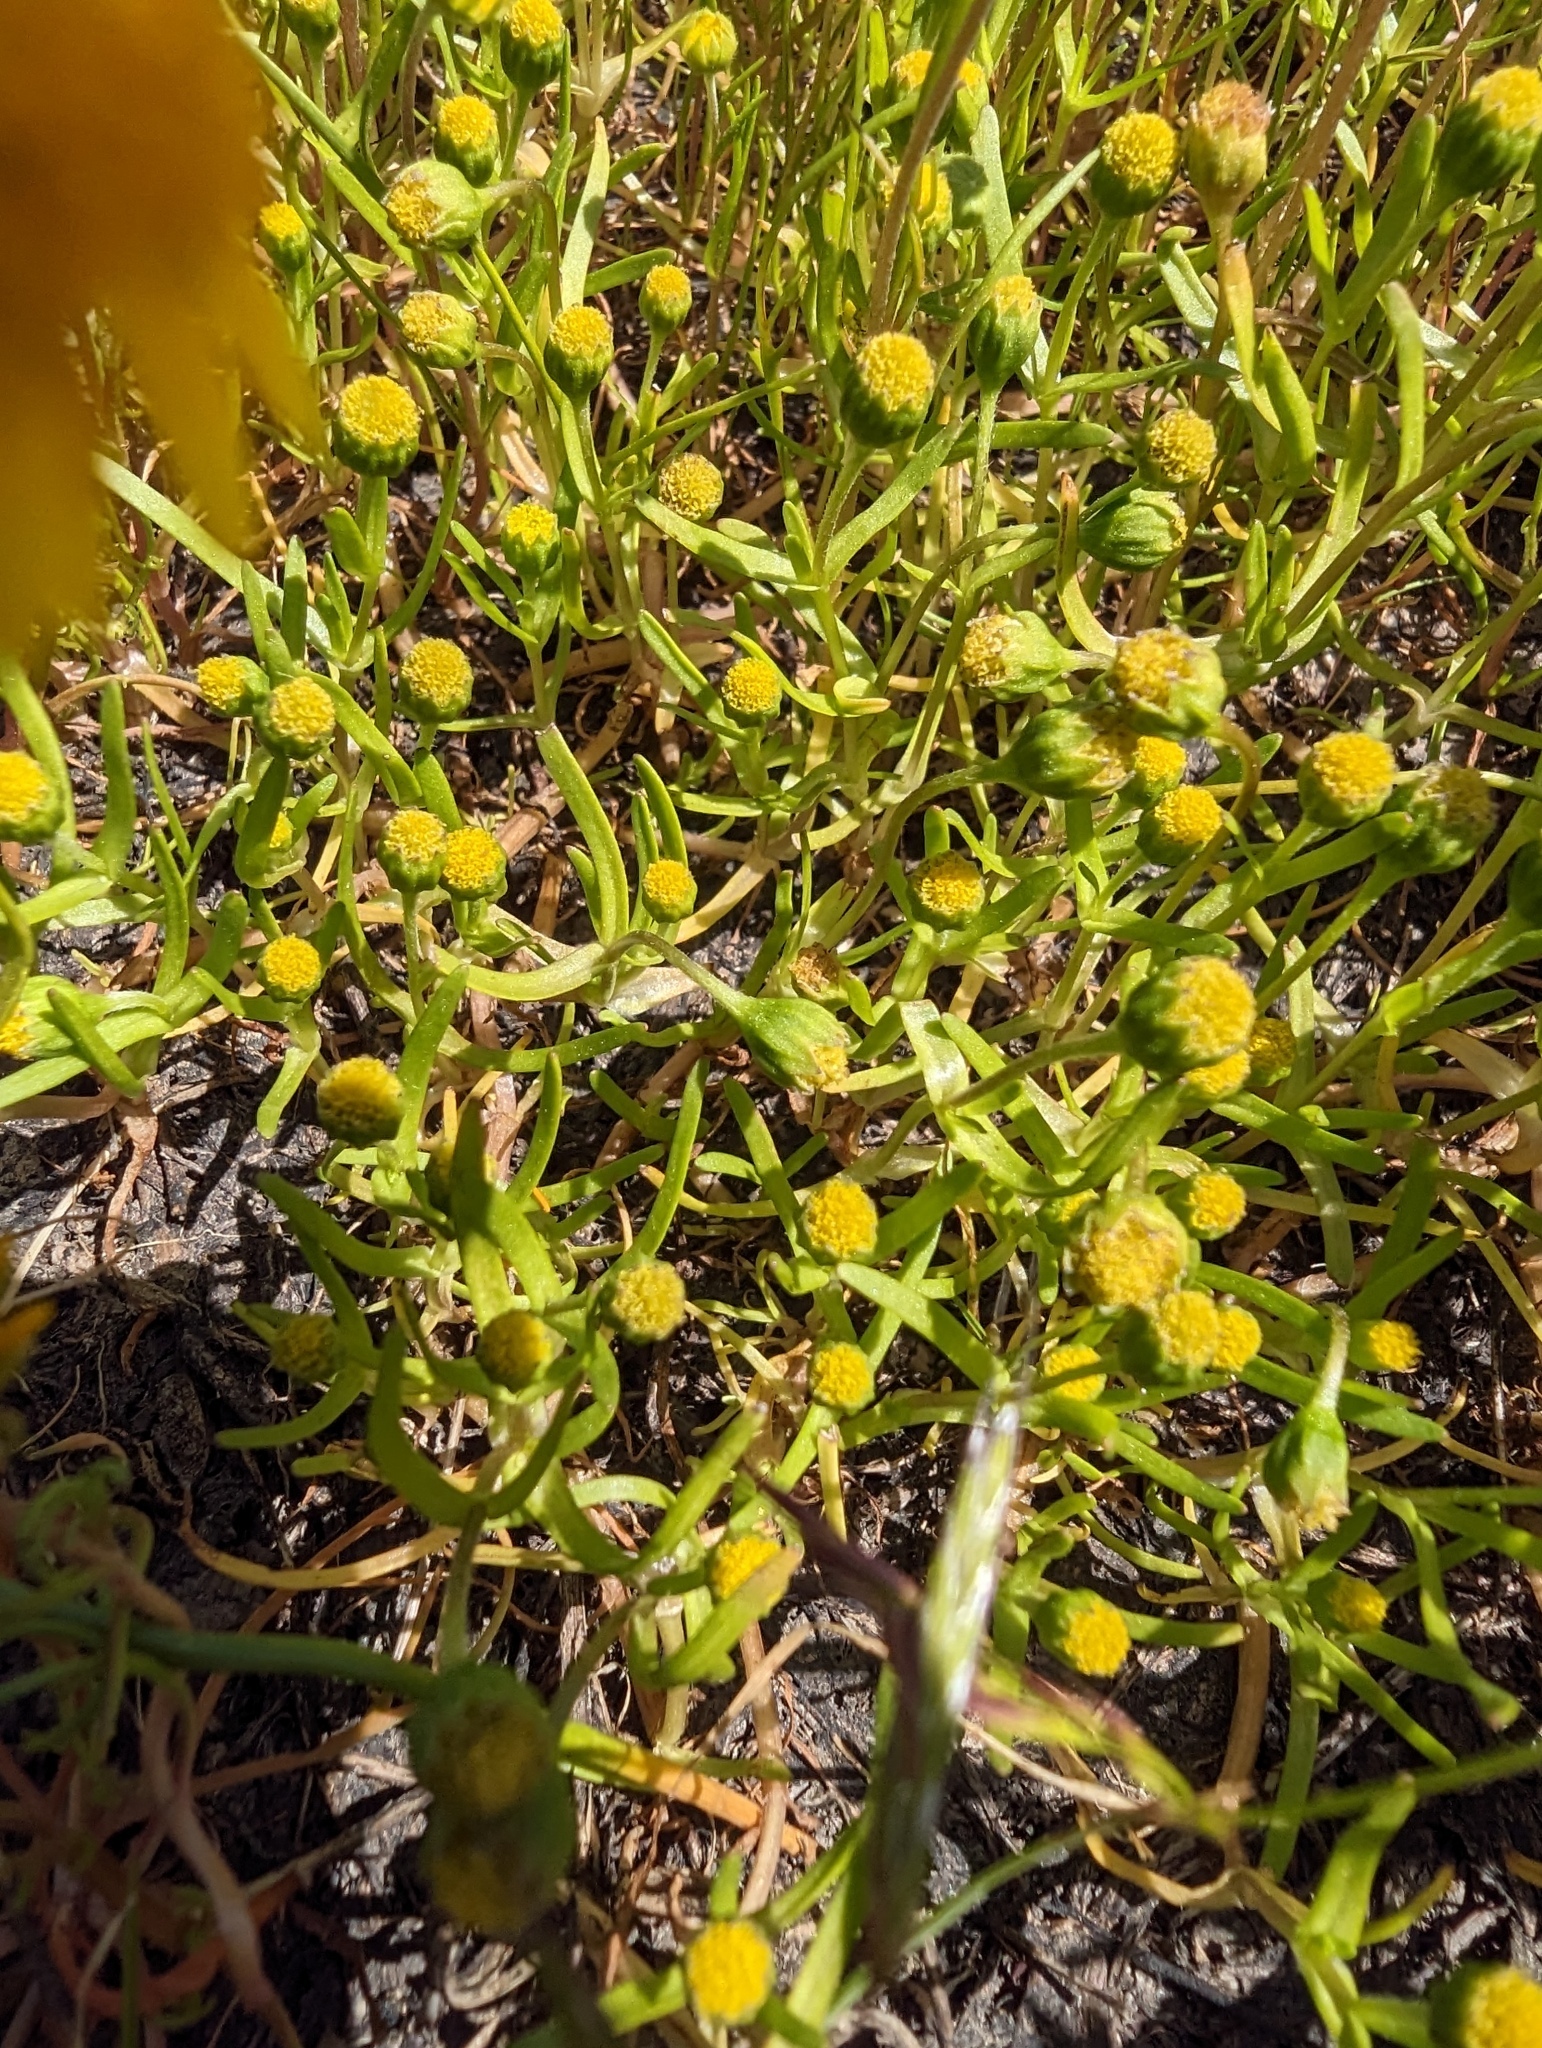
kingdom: Plantae
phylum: Tracheophyta
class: Magnoliopsida
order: Asterales
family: Asteraceae
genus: Lasthenia
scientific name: Lasthenia glaberrima
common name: Smooth goldfields
